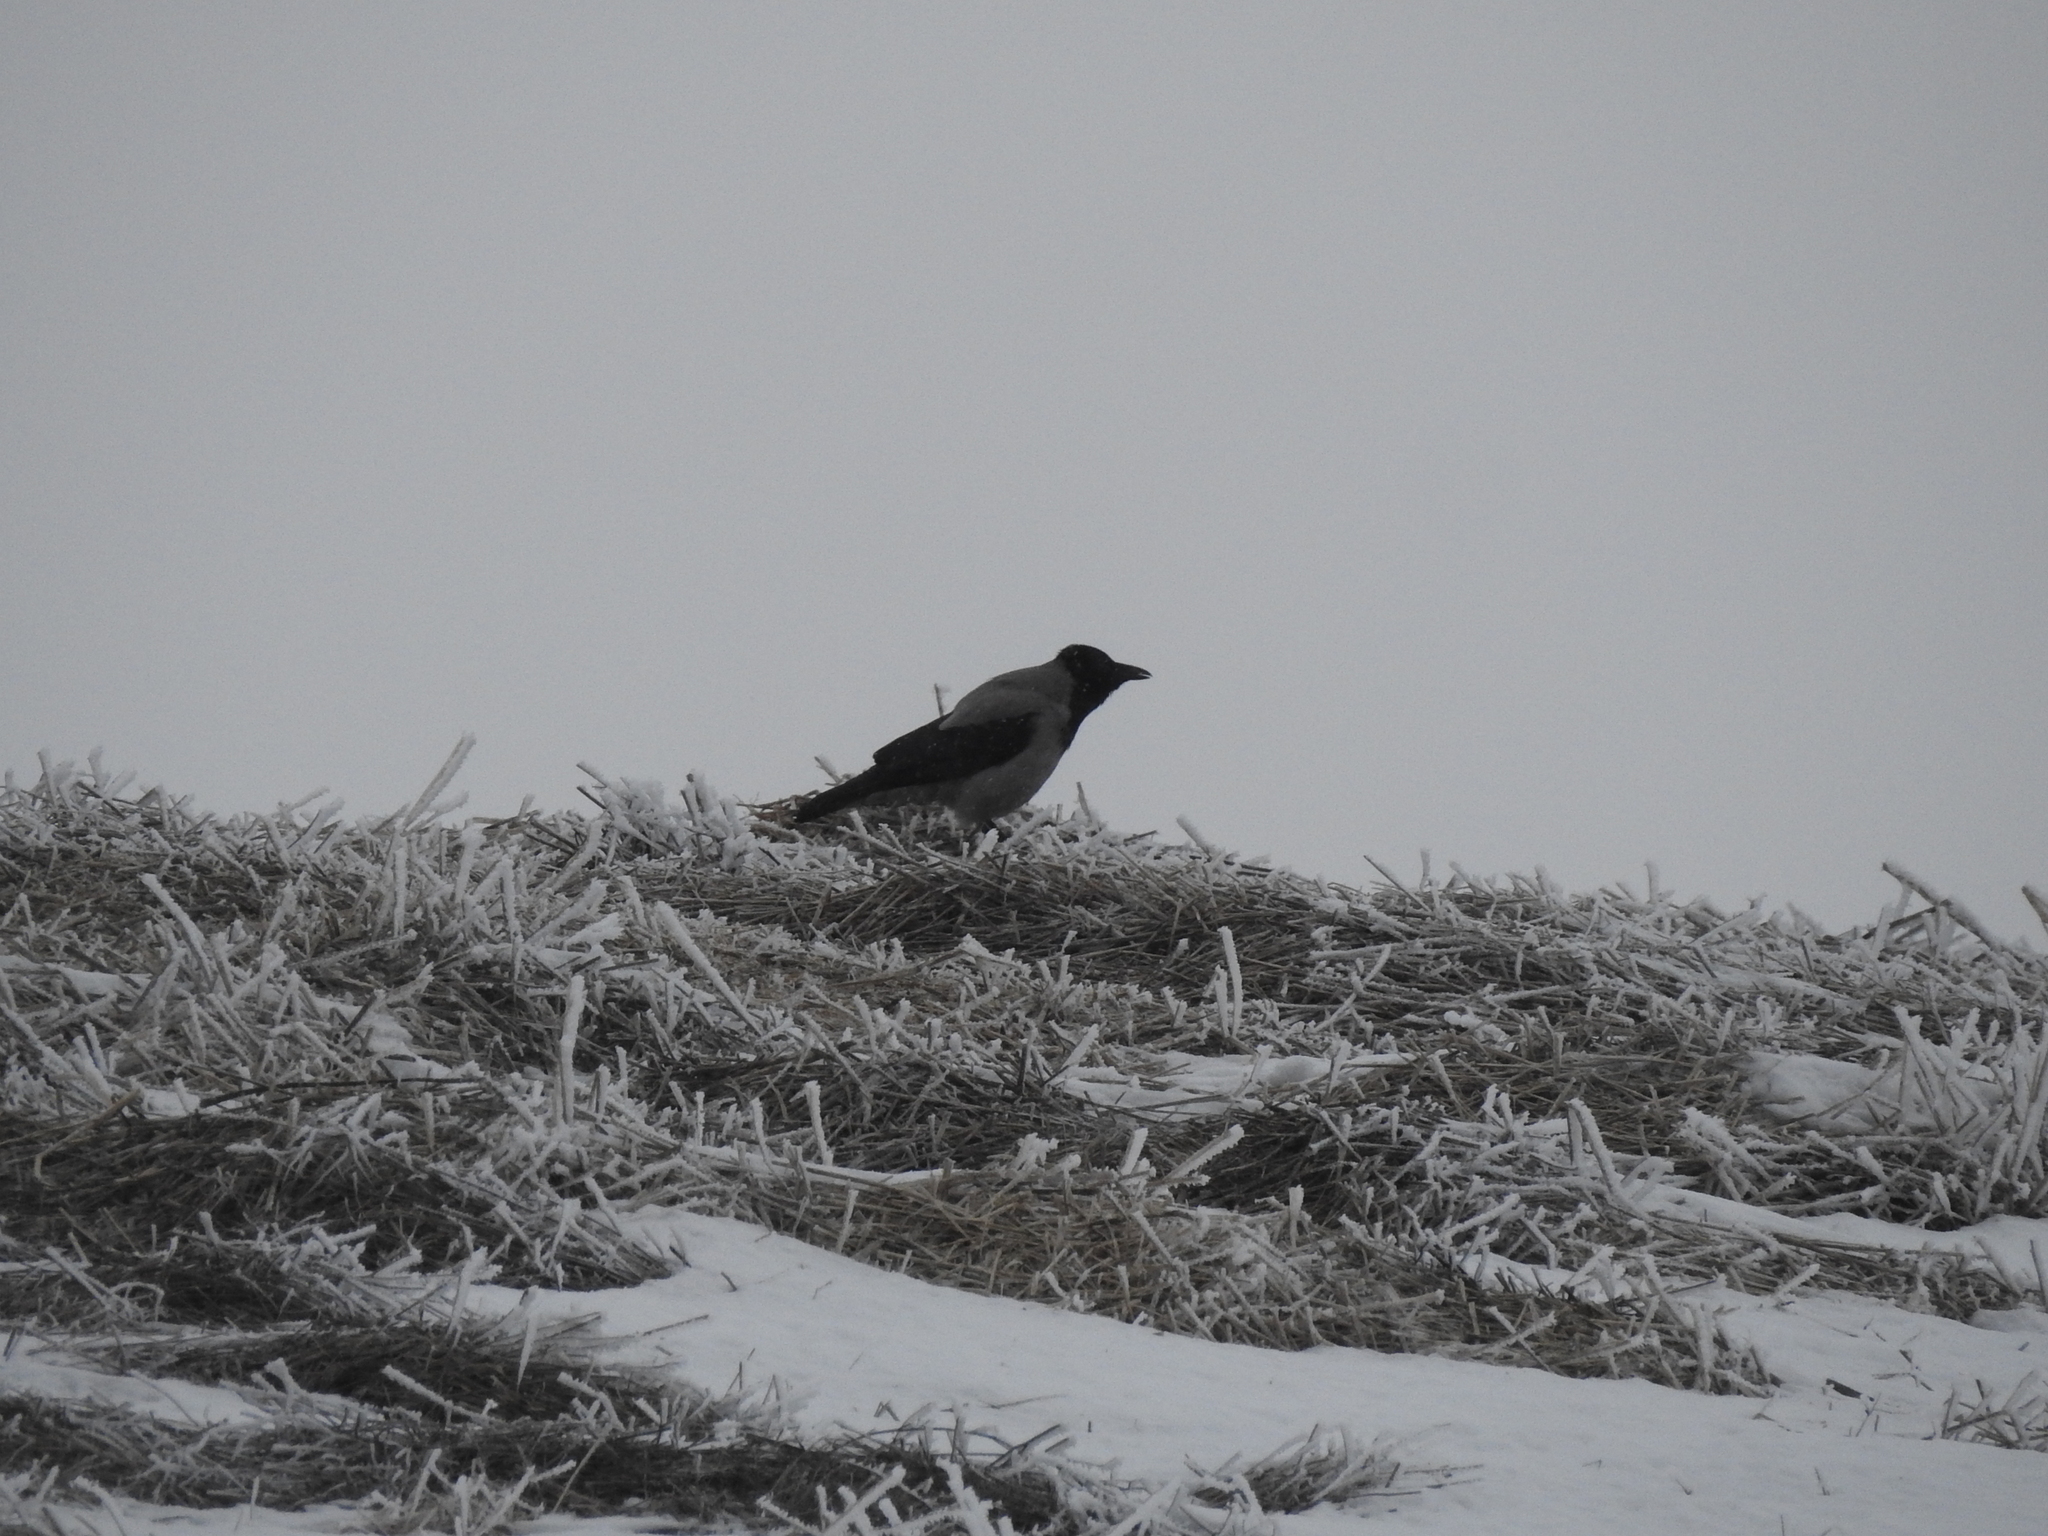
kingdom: Animalia
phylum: Chordata
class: Aves
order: Passeriformes
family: Corvidae
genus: Corvus
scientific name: Corvus cornix
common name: Hooded crow
